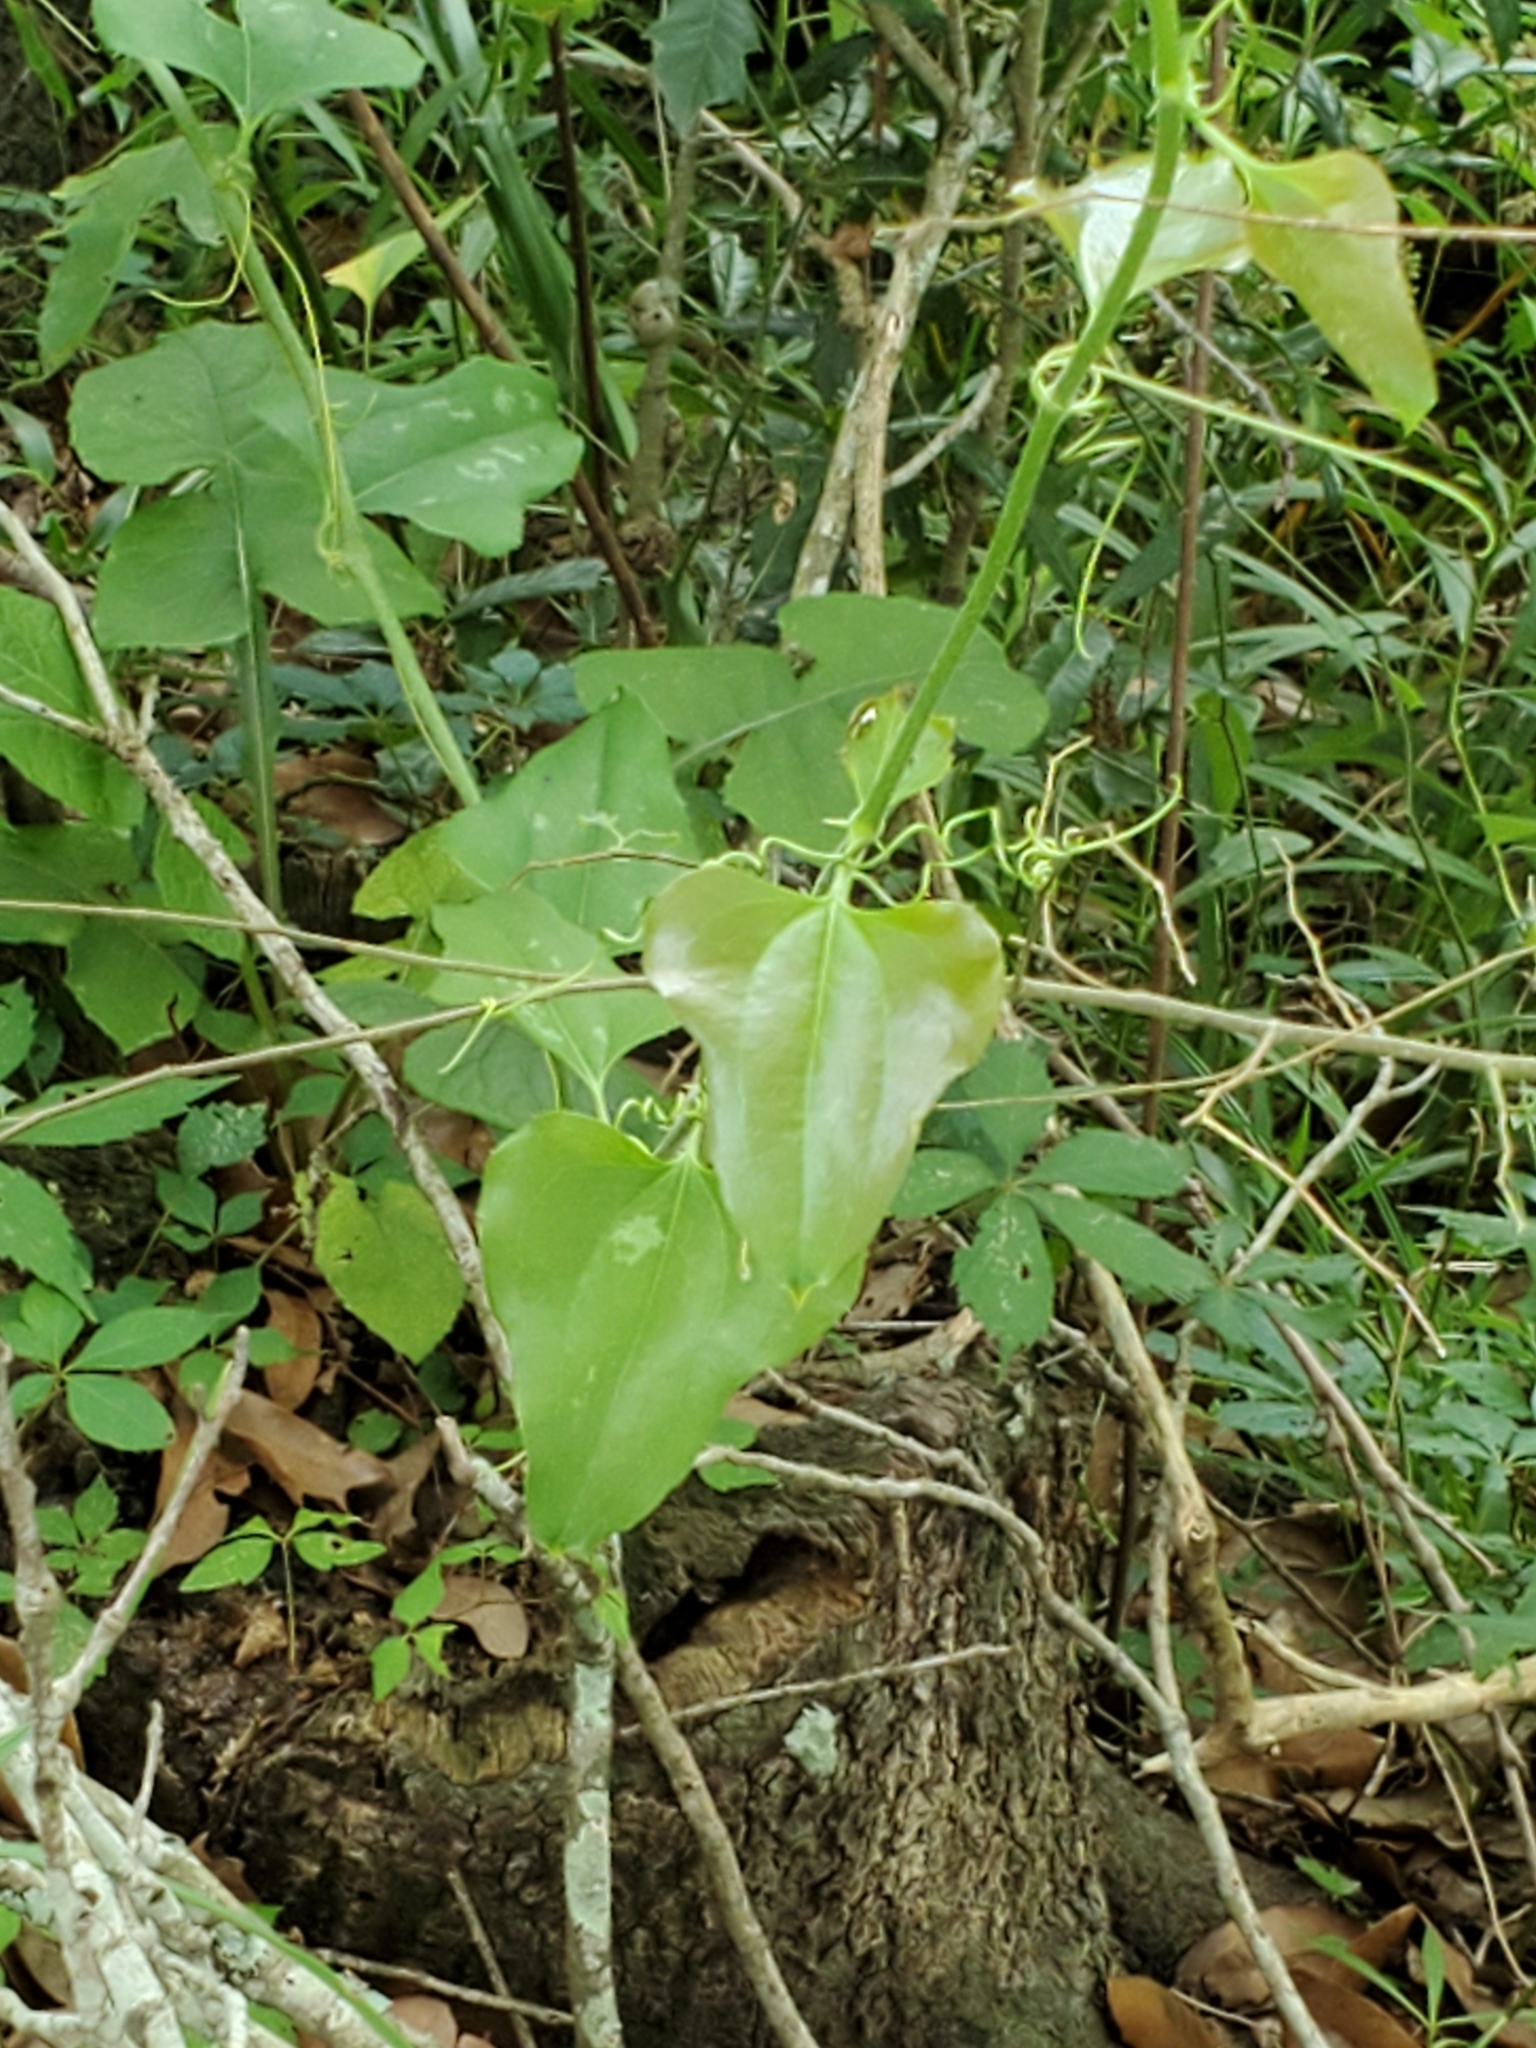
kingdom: Plantae
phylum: Tracheophyta
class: Liliopsida
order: Liliales
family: Smilacaceae
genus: Smilax
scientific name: Smilax bona-nox
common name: Catbrier
